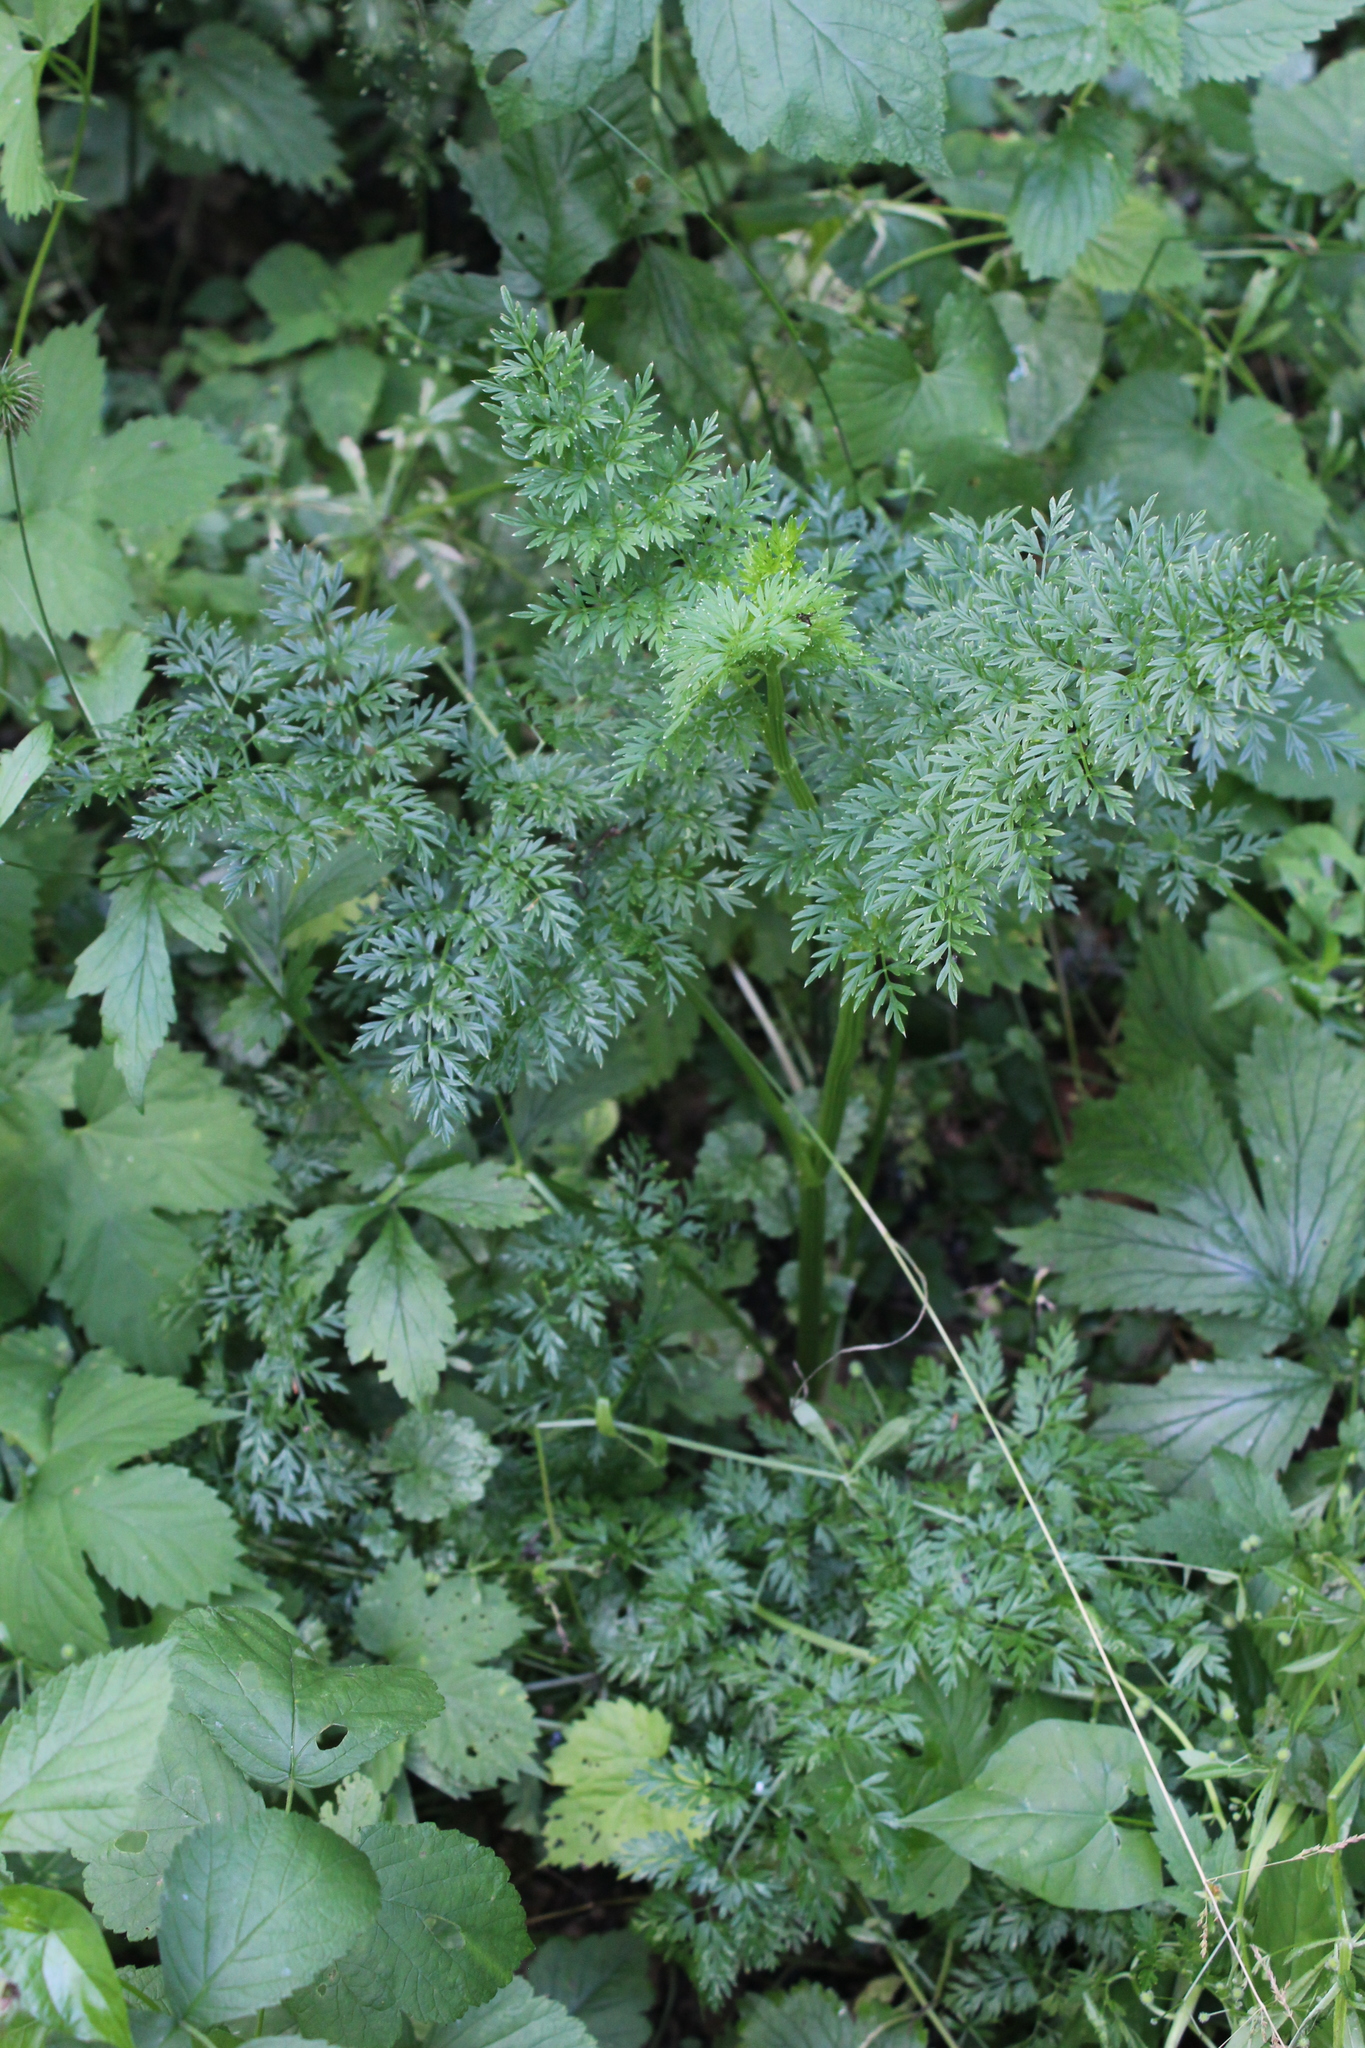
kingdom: Plantae
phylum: Tracheophyta
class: Magnoliopsida
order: Apiales
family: Apiaceae
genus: Selinum
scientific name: Selinum carvifolia
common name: Cambridge milk-parsley
